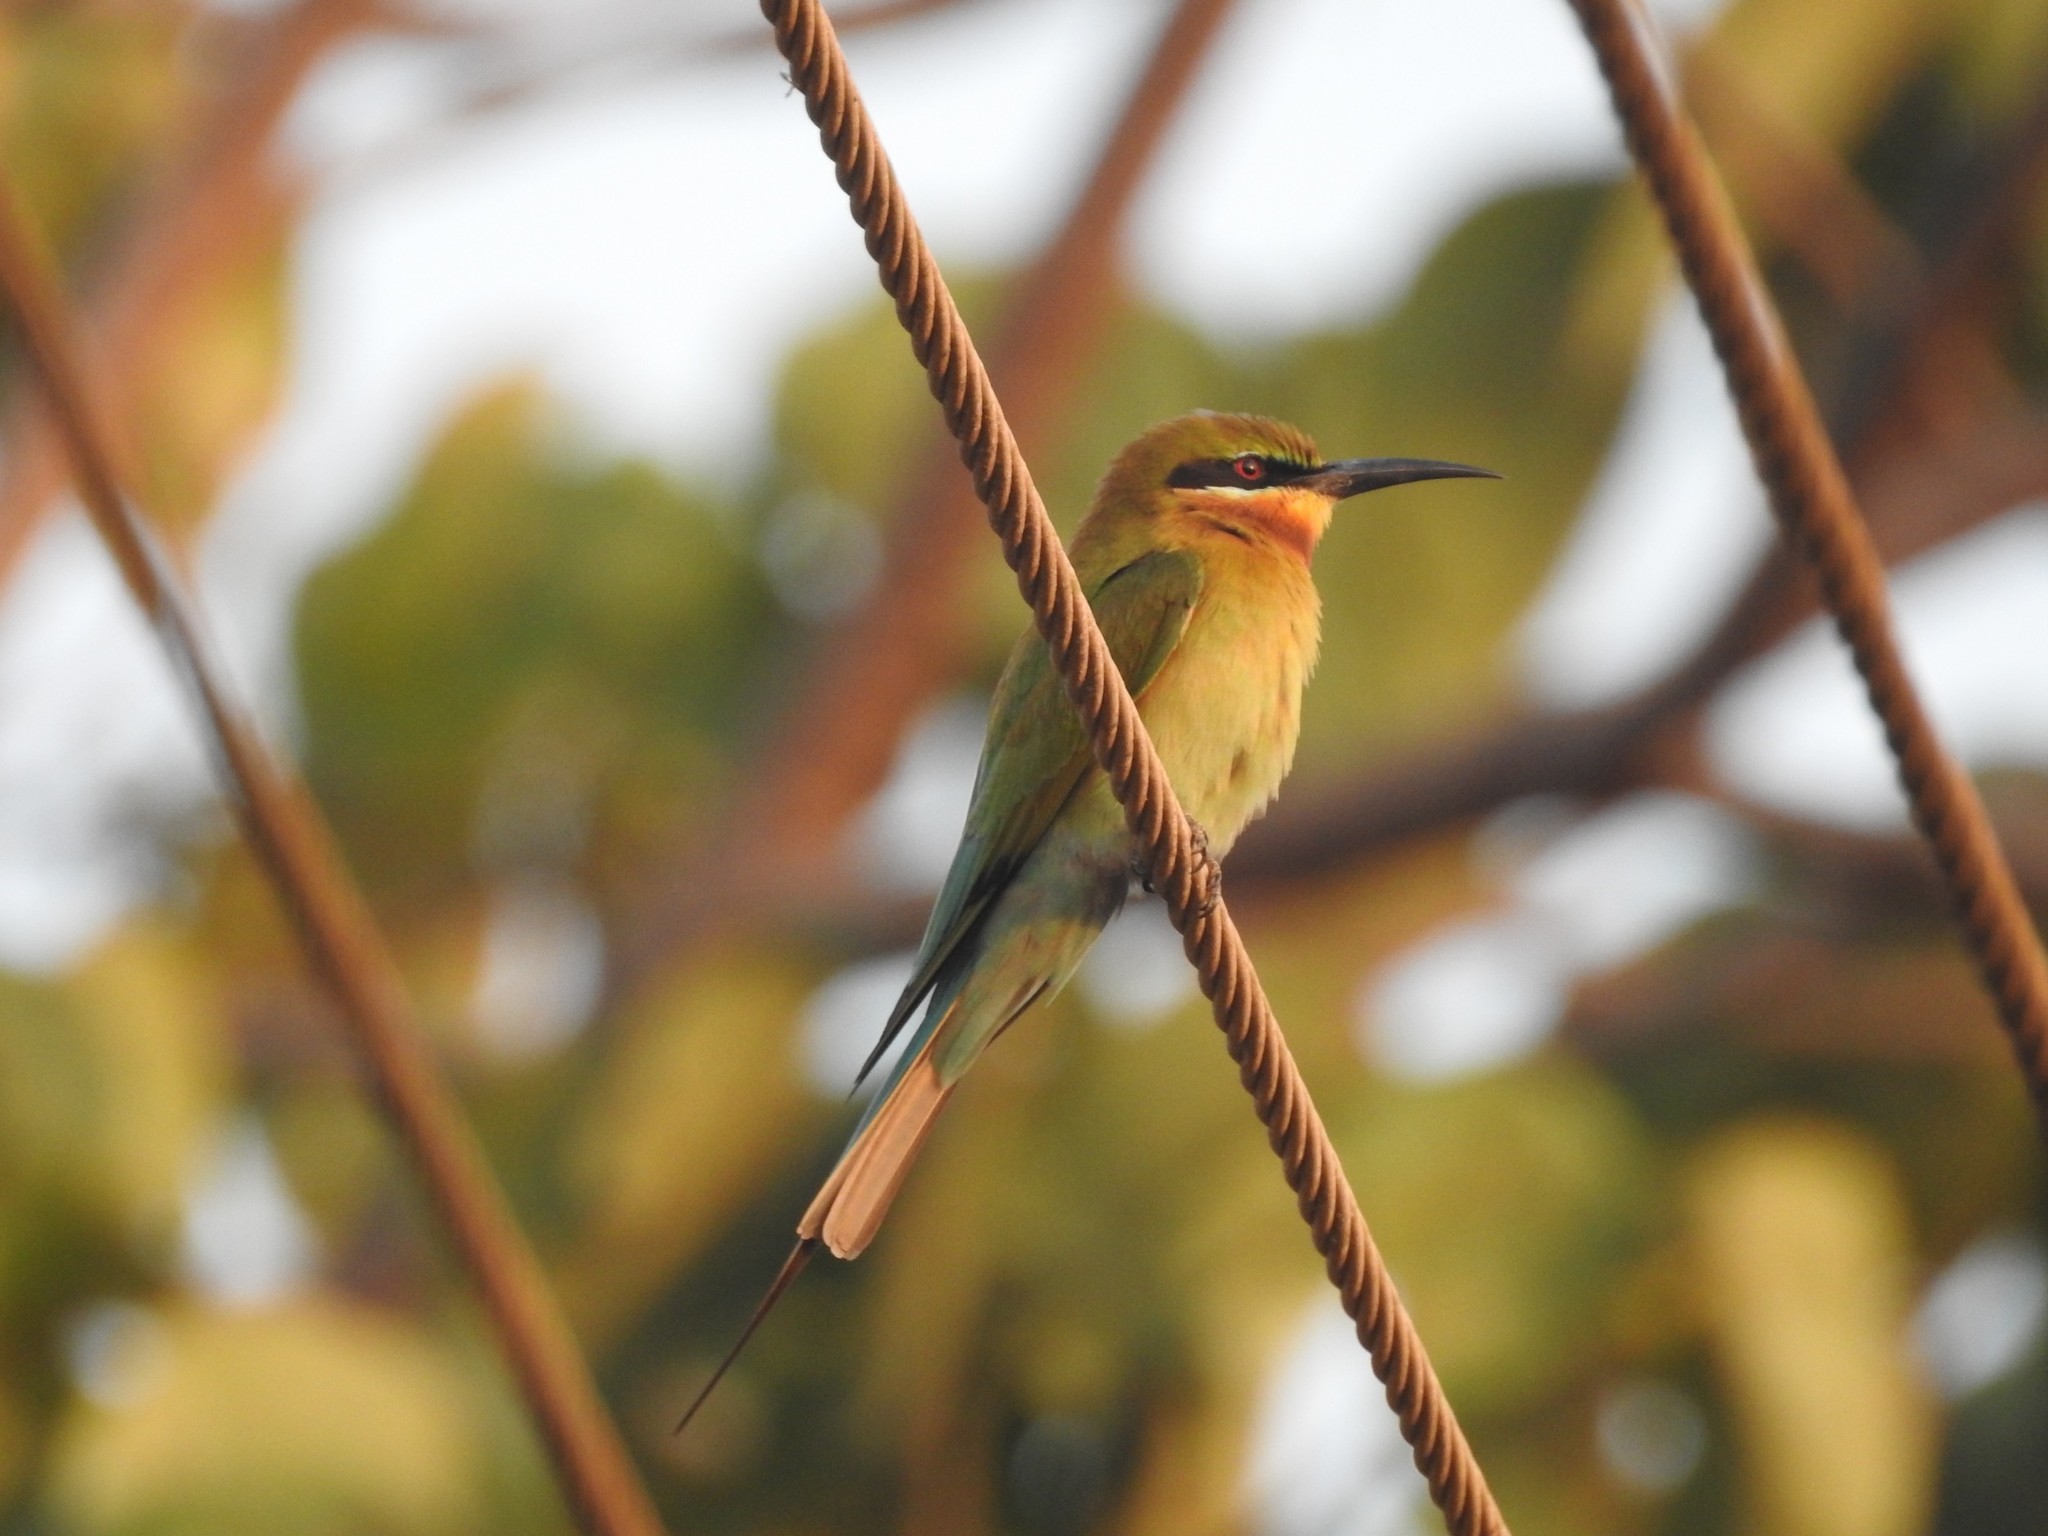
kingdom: Animalia
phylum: Chordata
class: Aves
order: Coraciiformes
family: Meropidae
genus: Merops
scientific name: Merops philippinus
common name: Blue-tailed bee-eater
